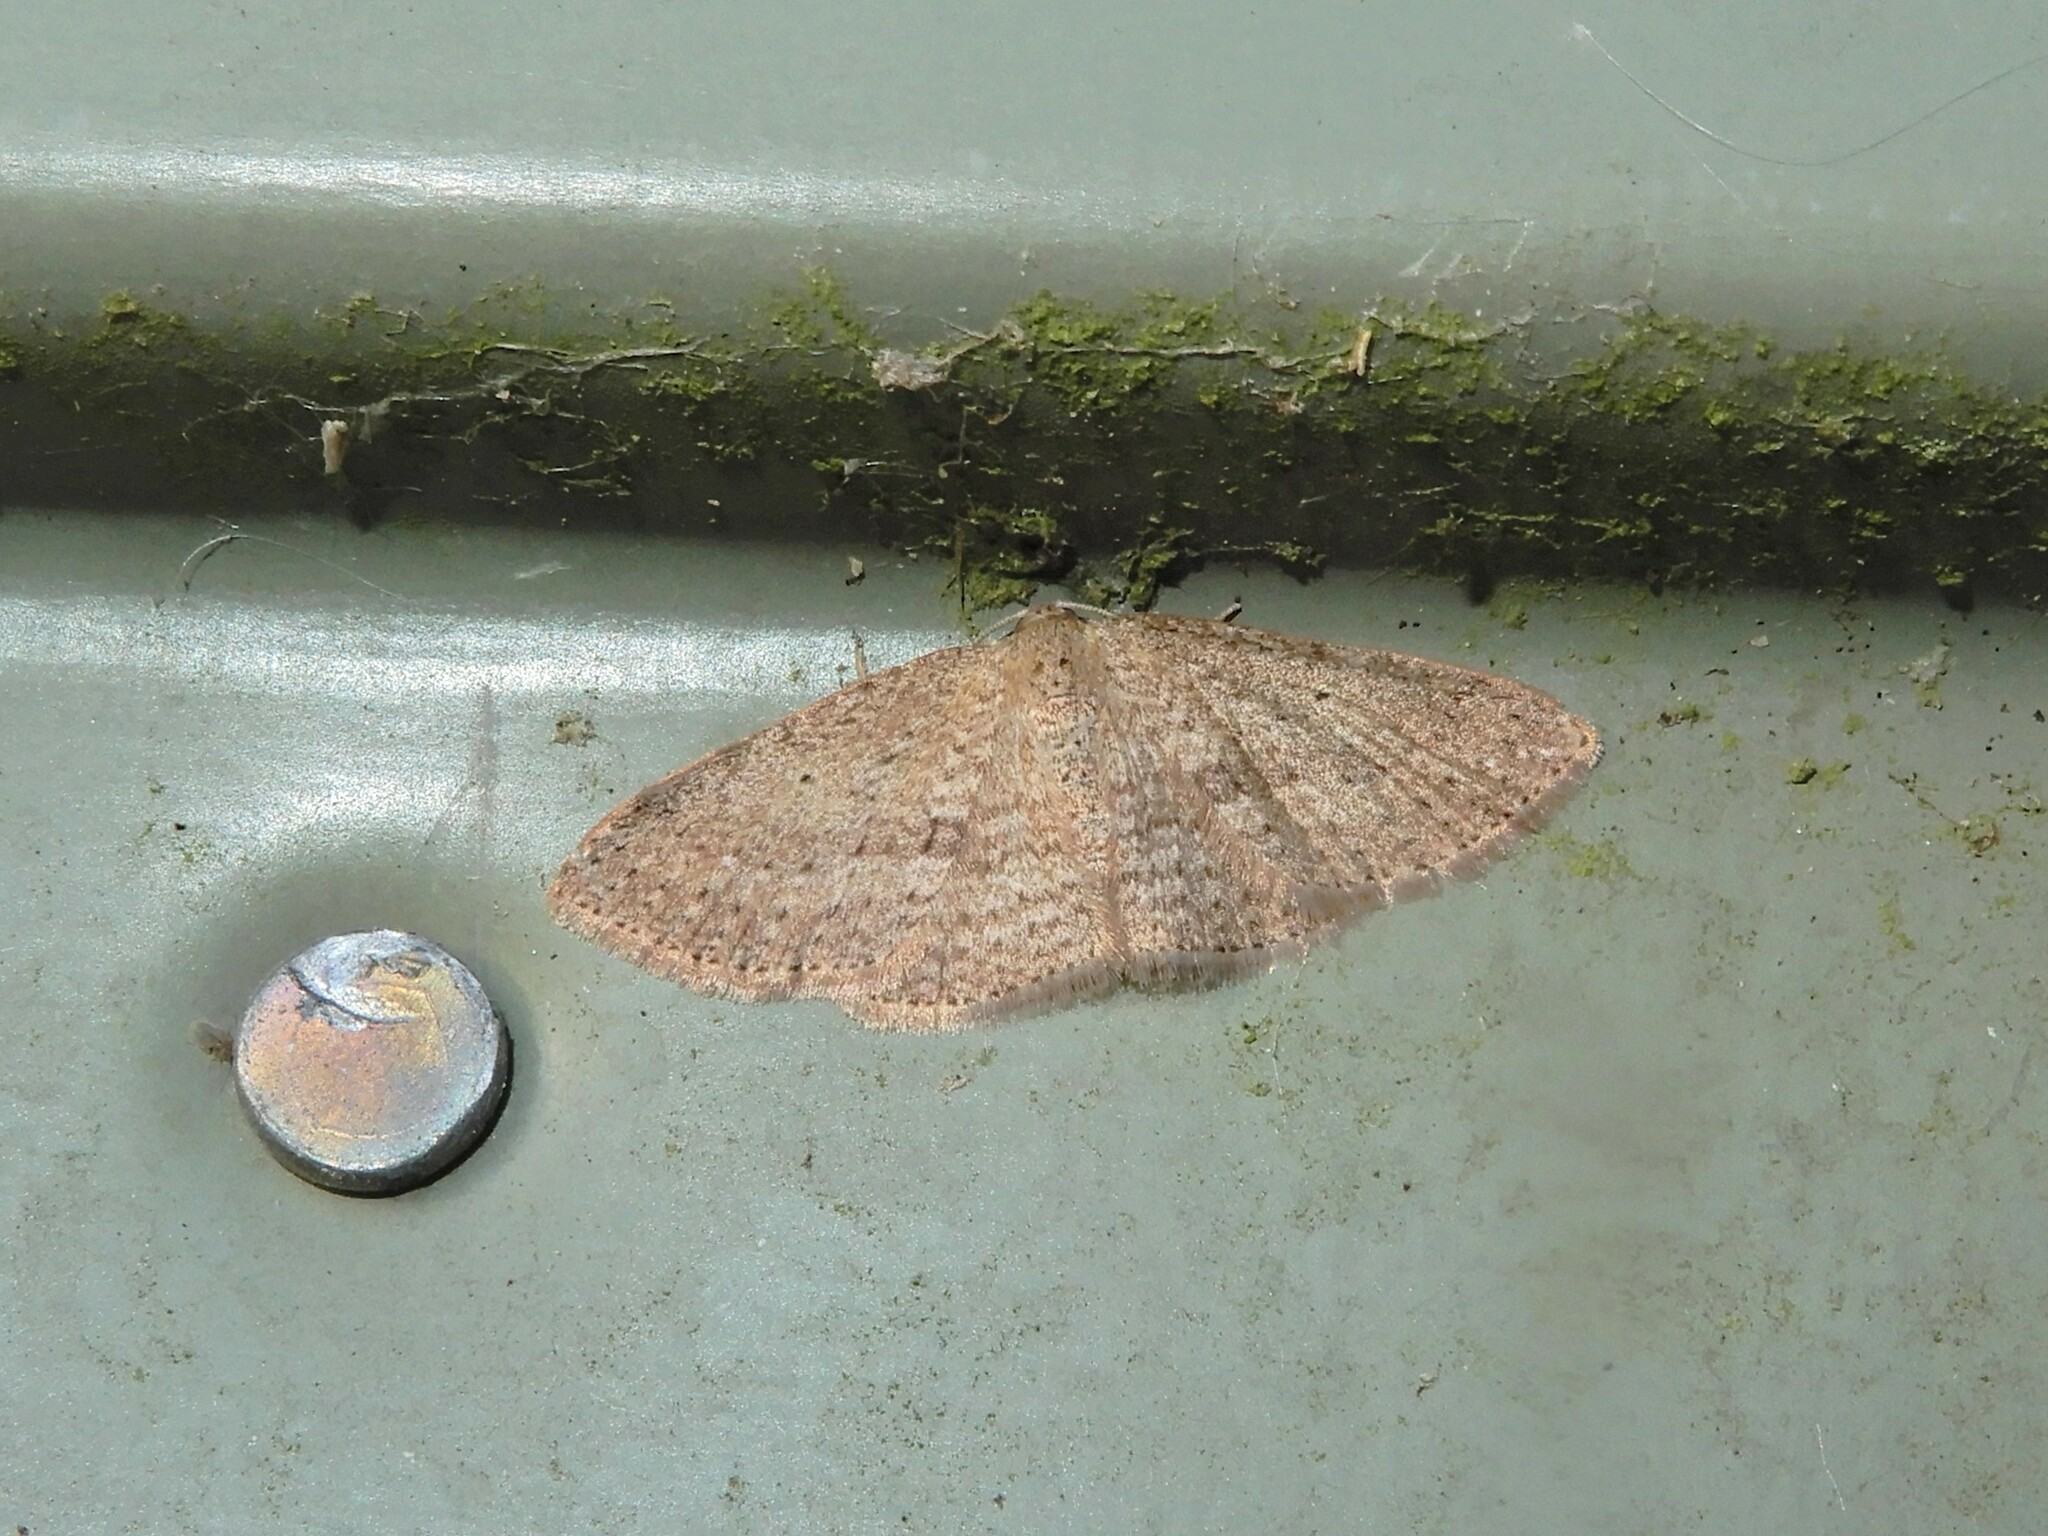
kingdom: Animalia
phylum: Arthropoda
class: Insecta
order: Lepidoptera
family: Geometridae
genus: Poecilasthena
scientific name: Poecilasthena schistaria
